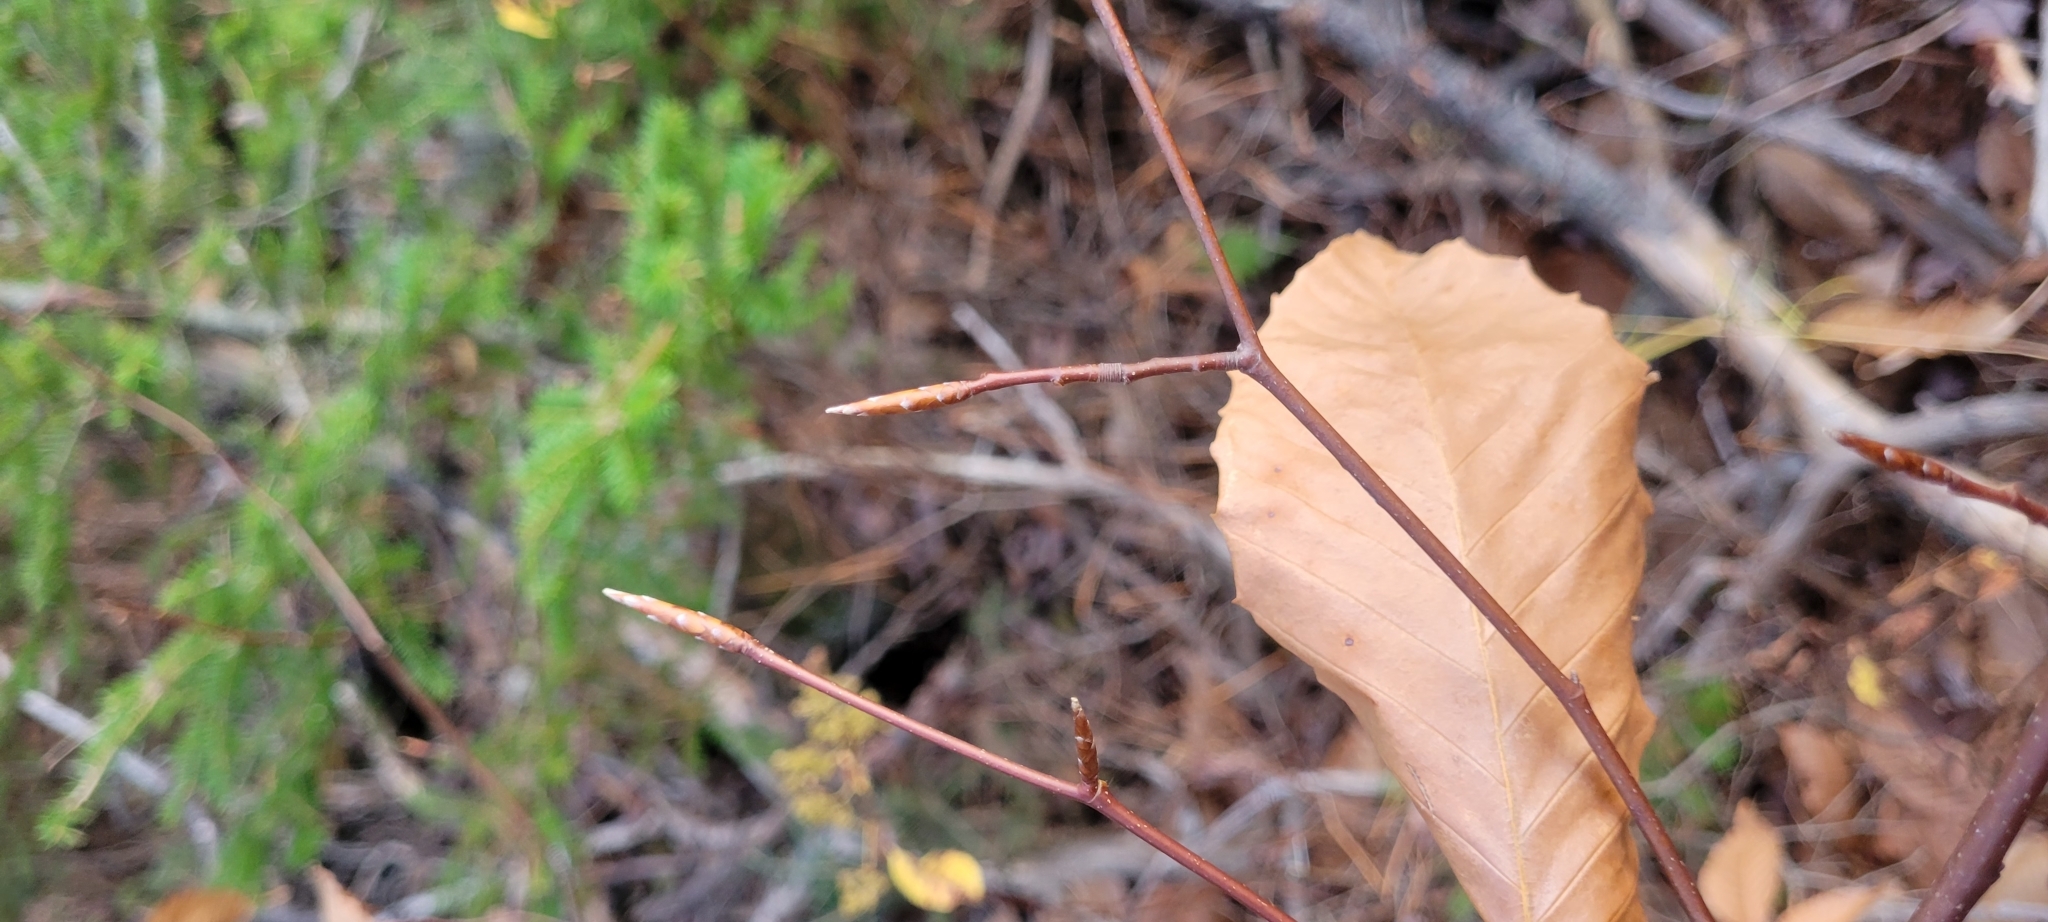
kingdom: Plantae
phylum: Tracheophyta
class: Magnoliopsida
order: Fagales
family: Fagaceae
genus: Fagus
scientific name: Fagus grandifolia
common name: American beech
